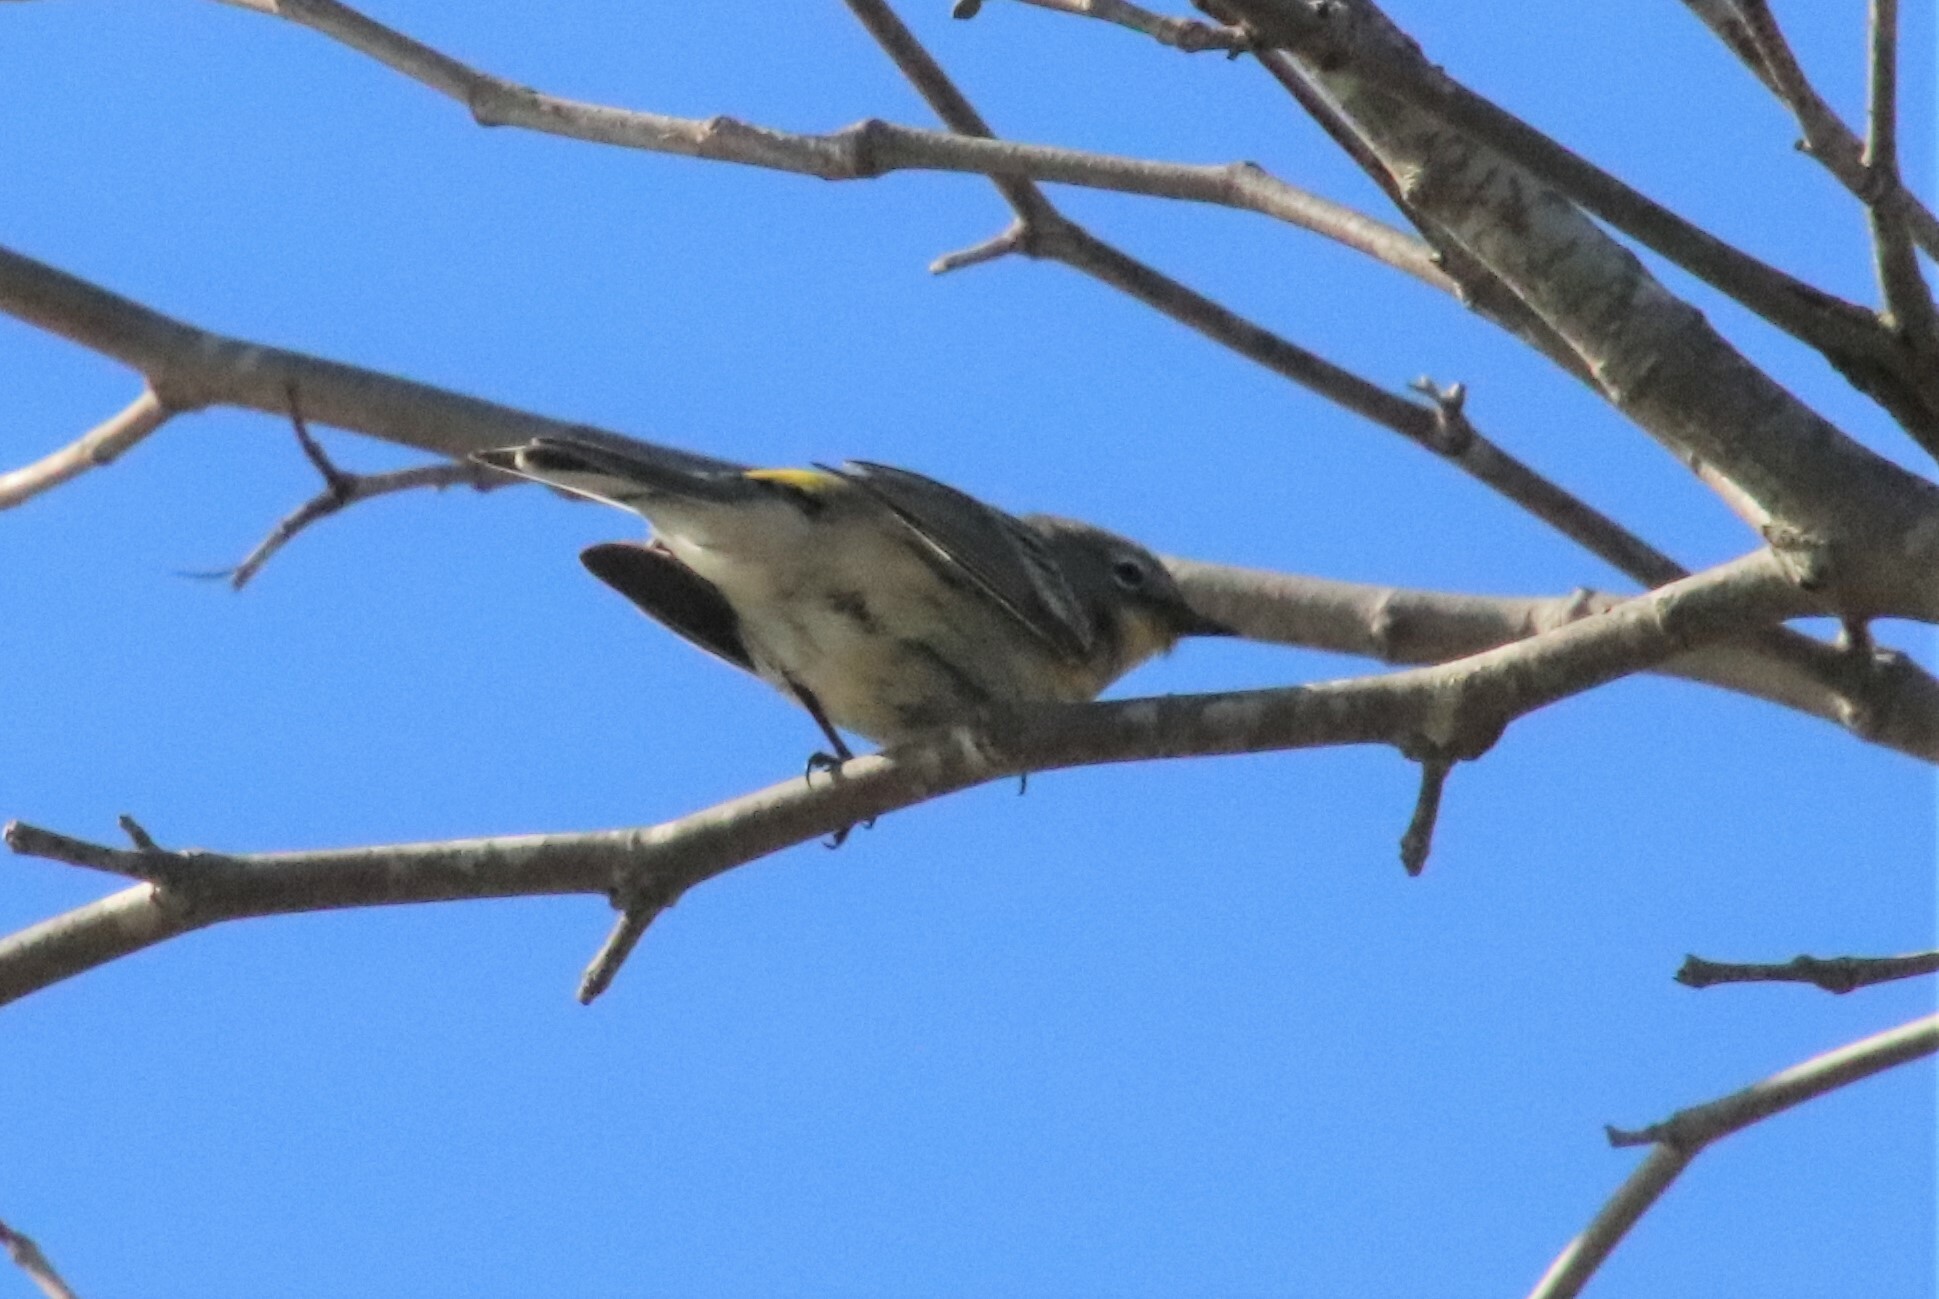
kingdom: Animalia
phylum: Chordata
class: Aves
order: Passeriformes
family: Parulidae
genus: Setophaga
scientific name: Setophaga coronata
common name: Myrtle warbler
